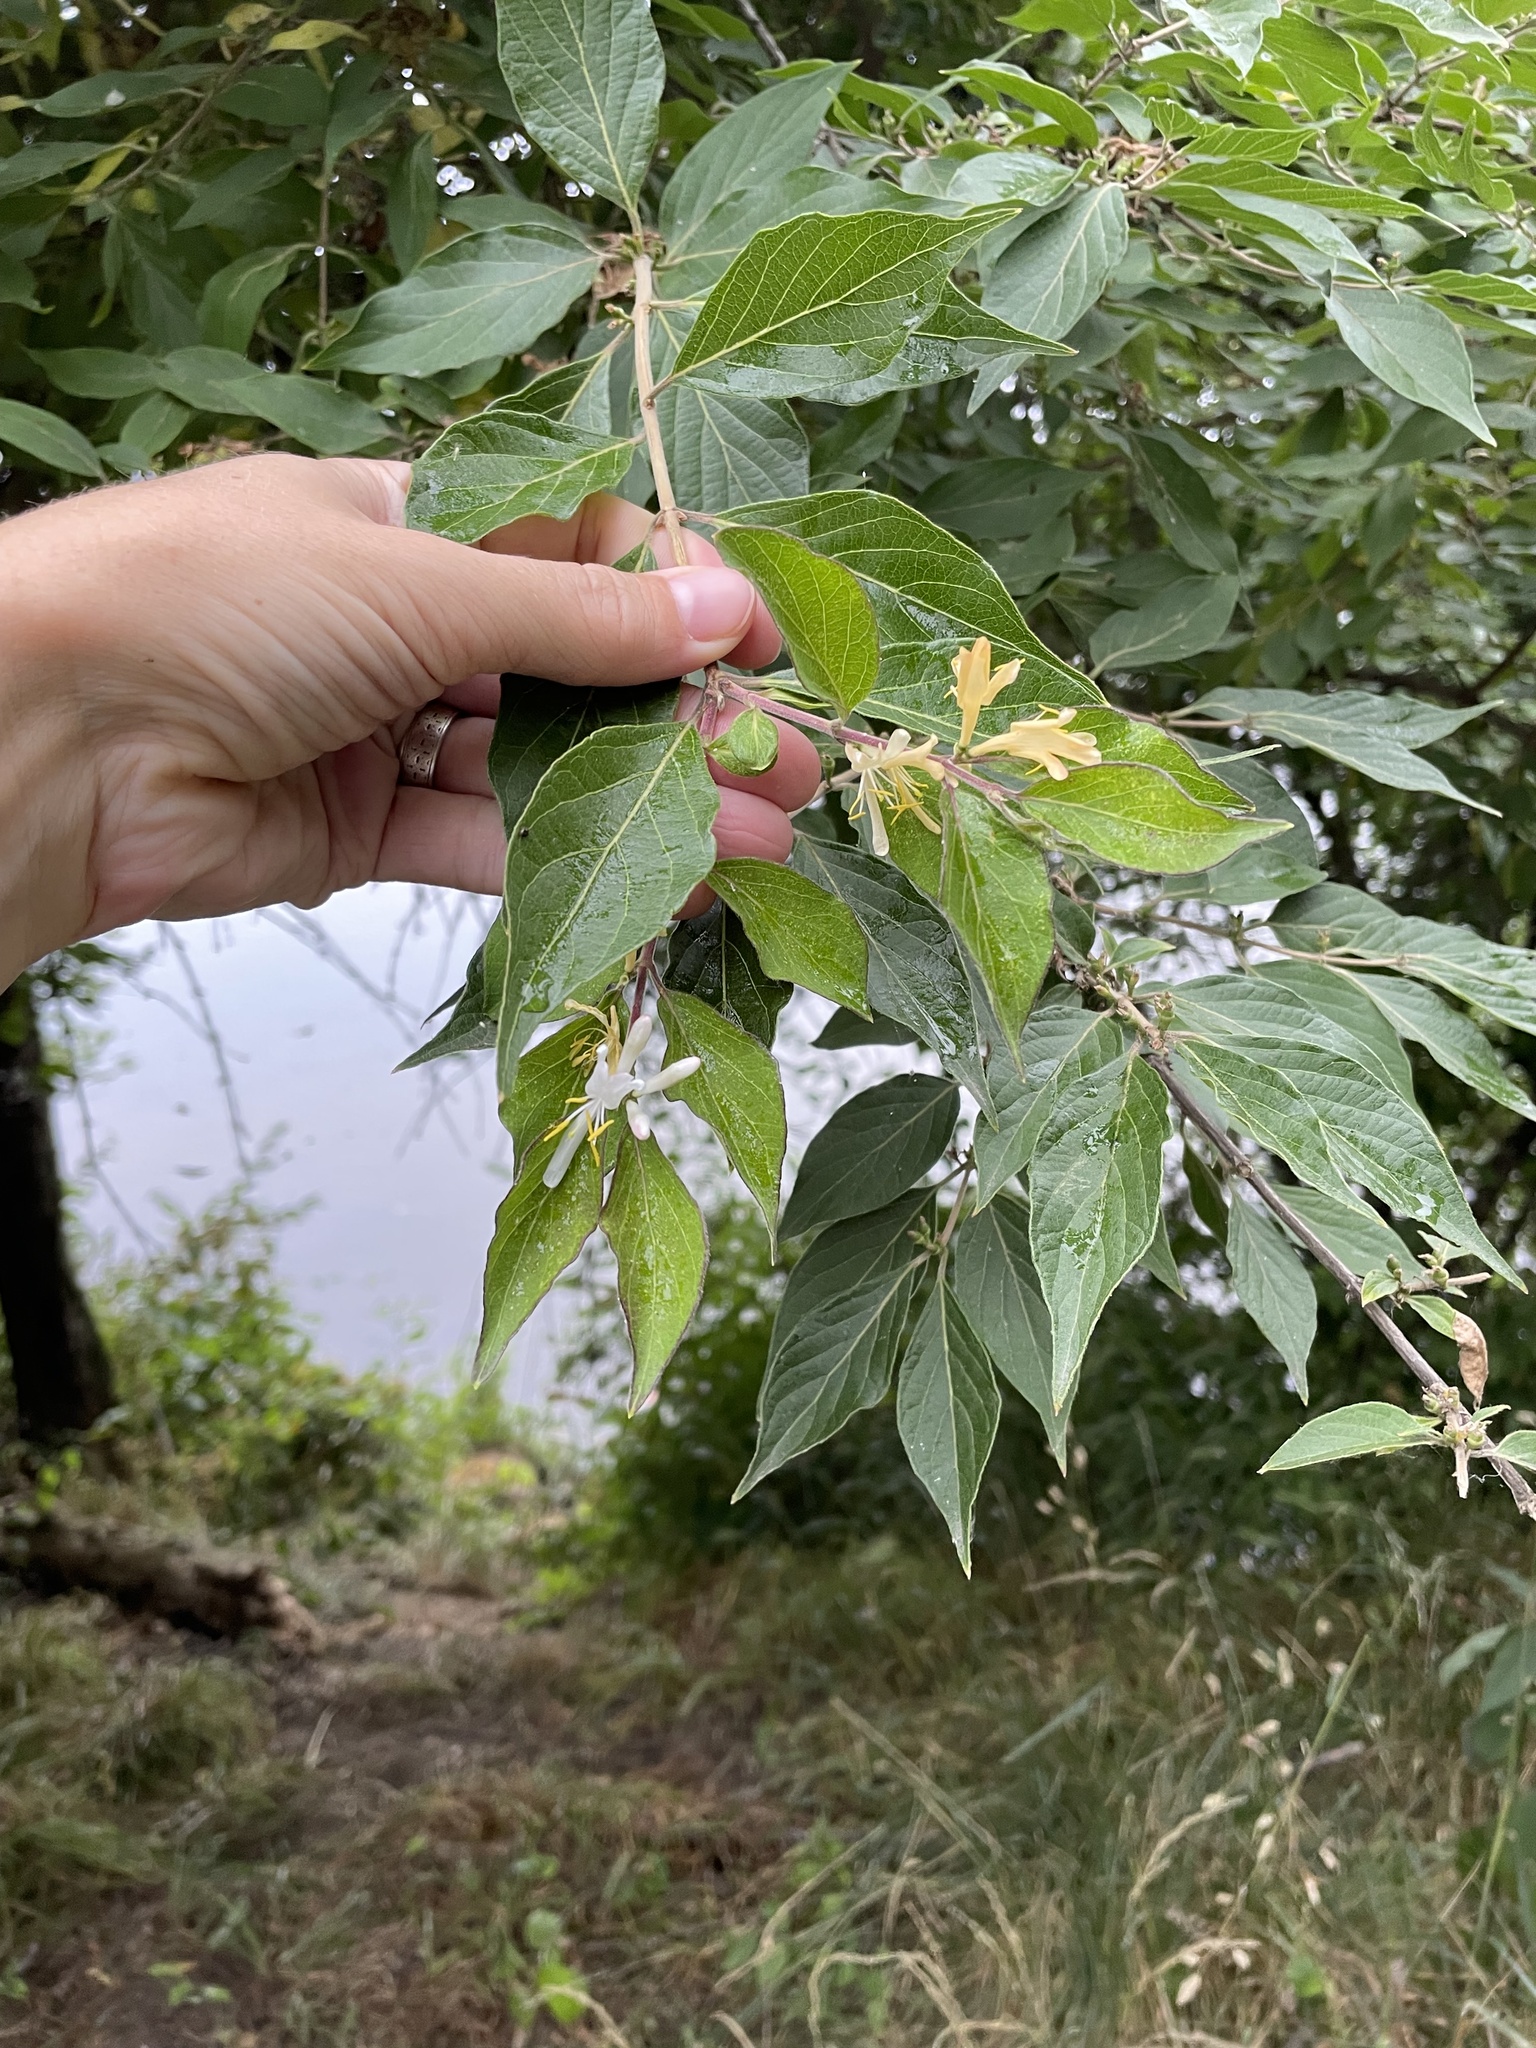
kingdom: Plantae
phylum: Tracheophyta
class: Magnoliopsida
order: Dipsacales
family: Caprifoliaceae
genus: Lonicera
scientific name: Lonicera maackii
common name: Amur honeysuckle
